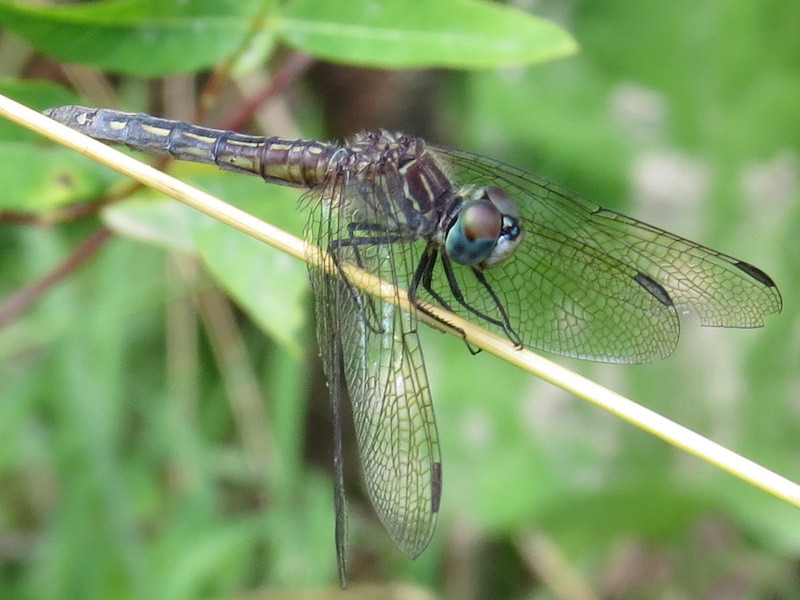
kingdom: Animalia
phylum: Arthropoda
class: Insecta
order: Odonata
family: Libellulidae
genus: Pachydiplax
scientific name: Pachydiplax longipennis
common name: Blue dasher
